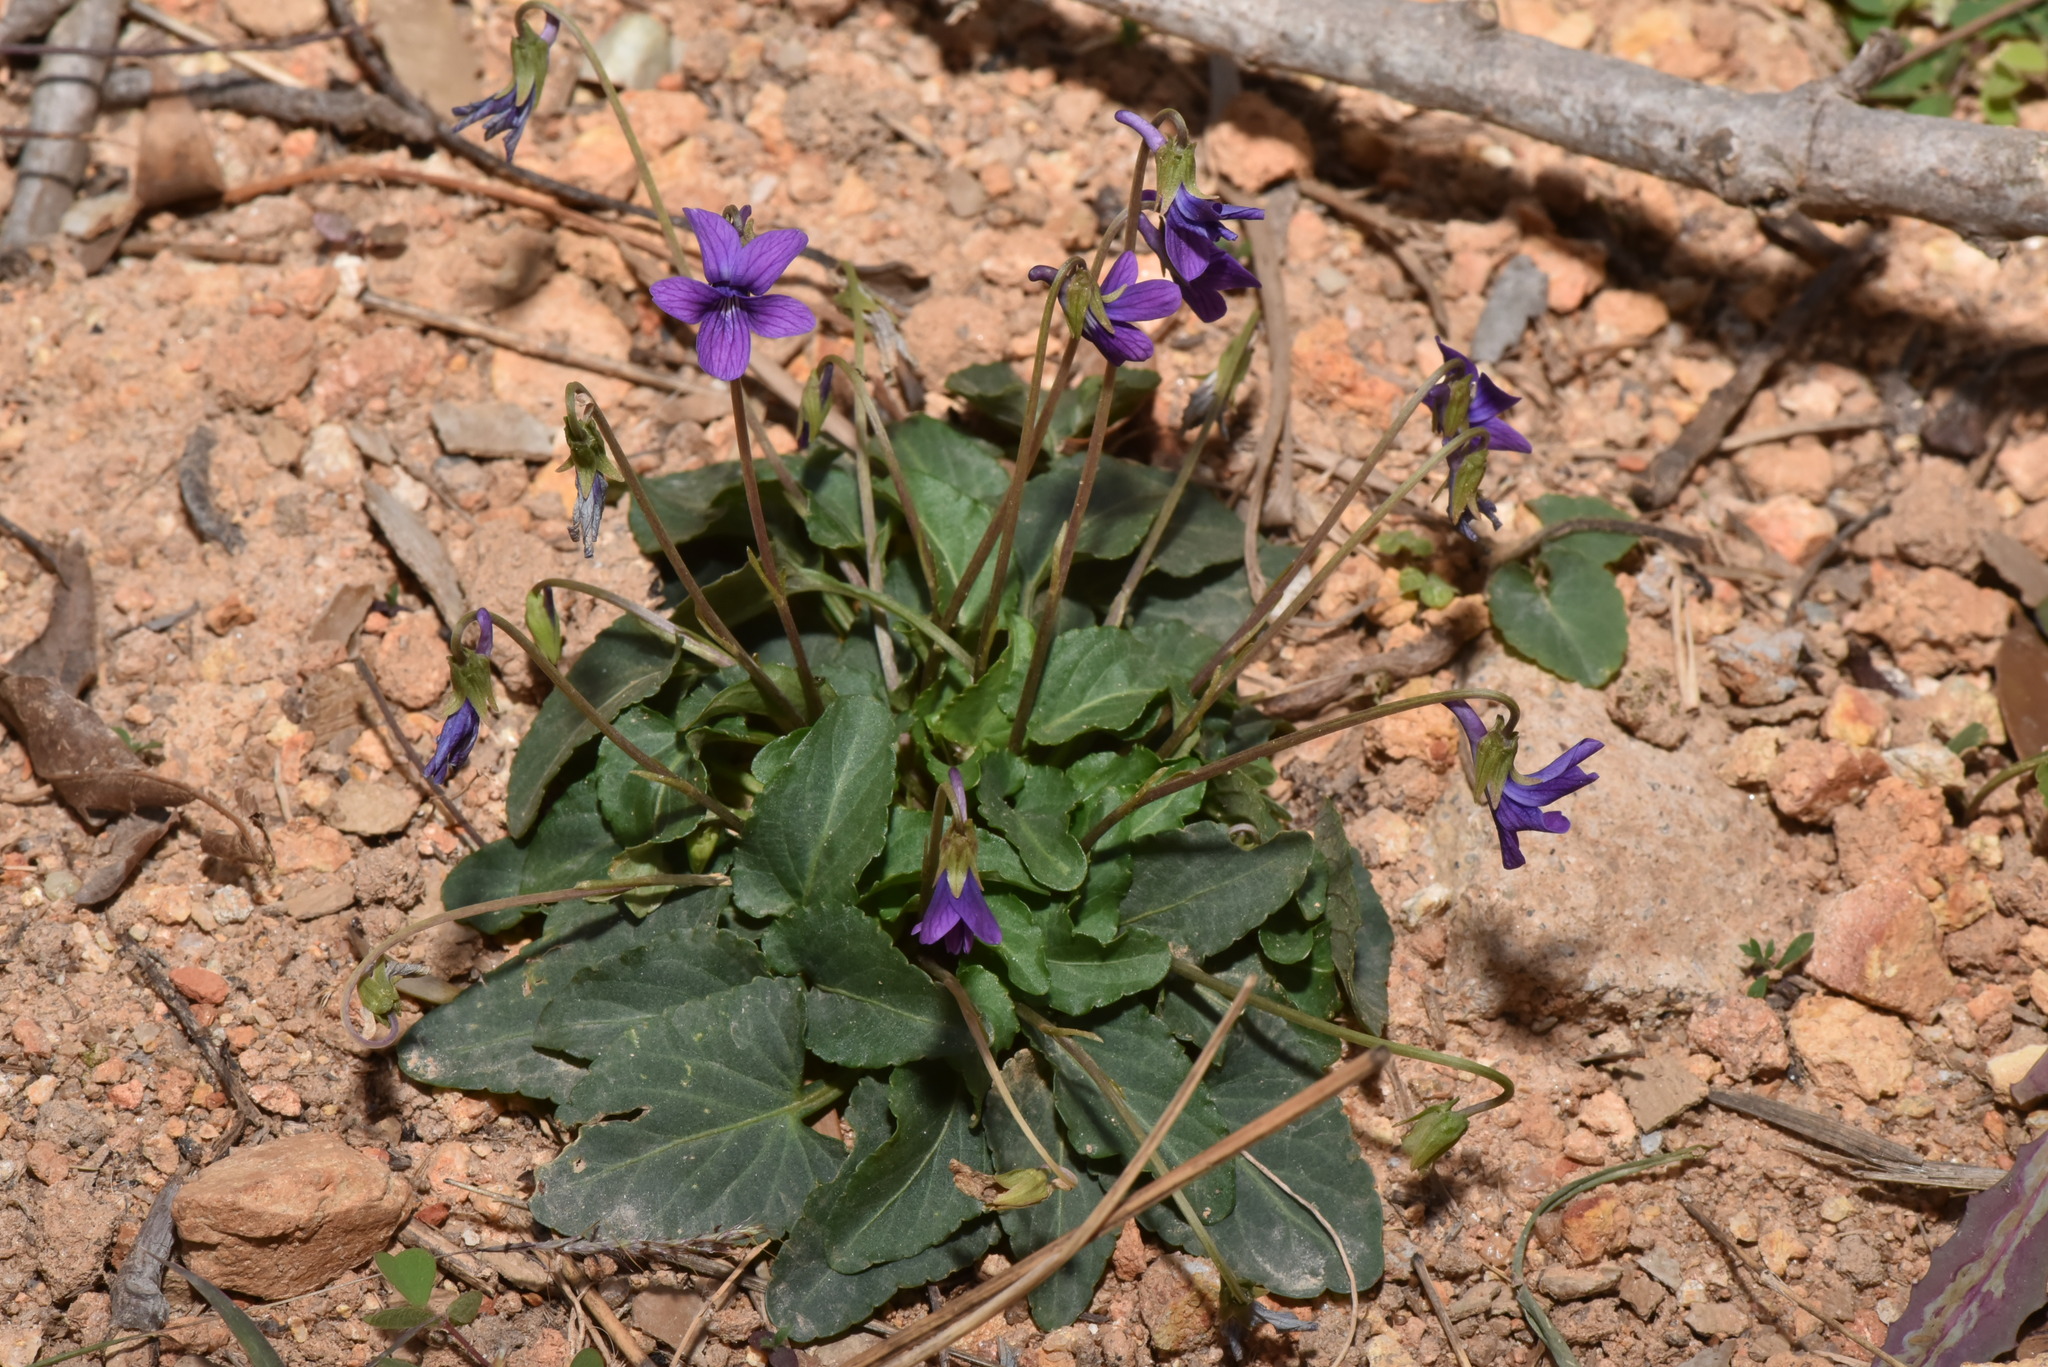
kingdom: Plantae
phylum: Tracheophyta
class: Magnoliopsida
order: Malpighiales
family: Violaceae
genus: Viola
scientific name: Viola
